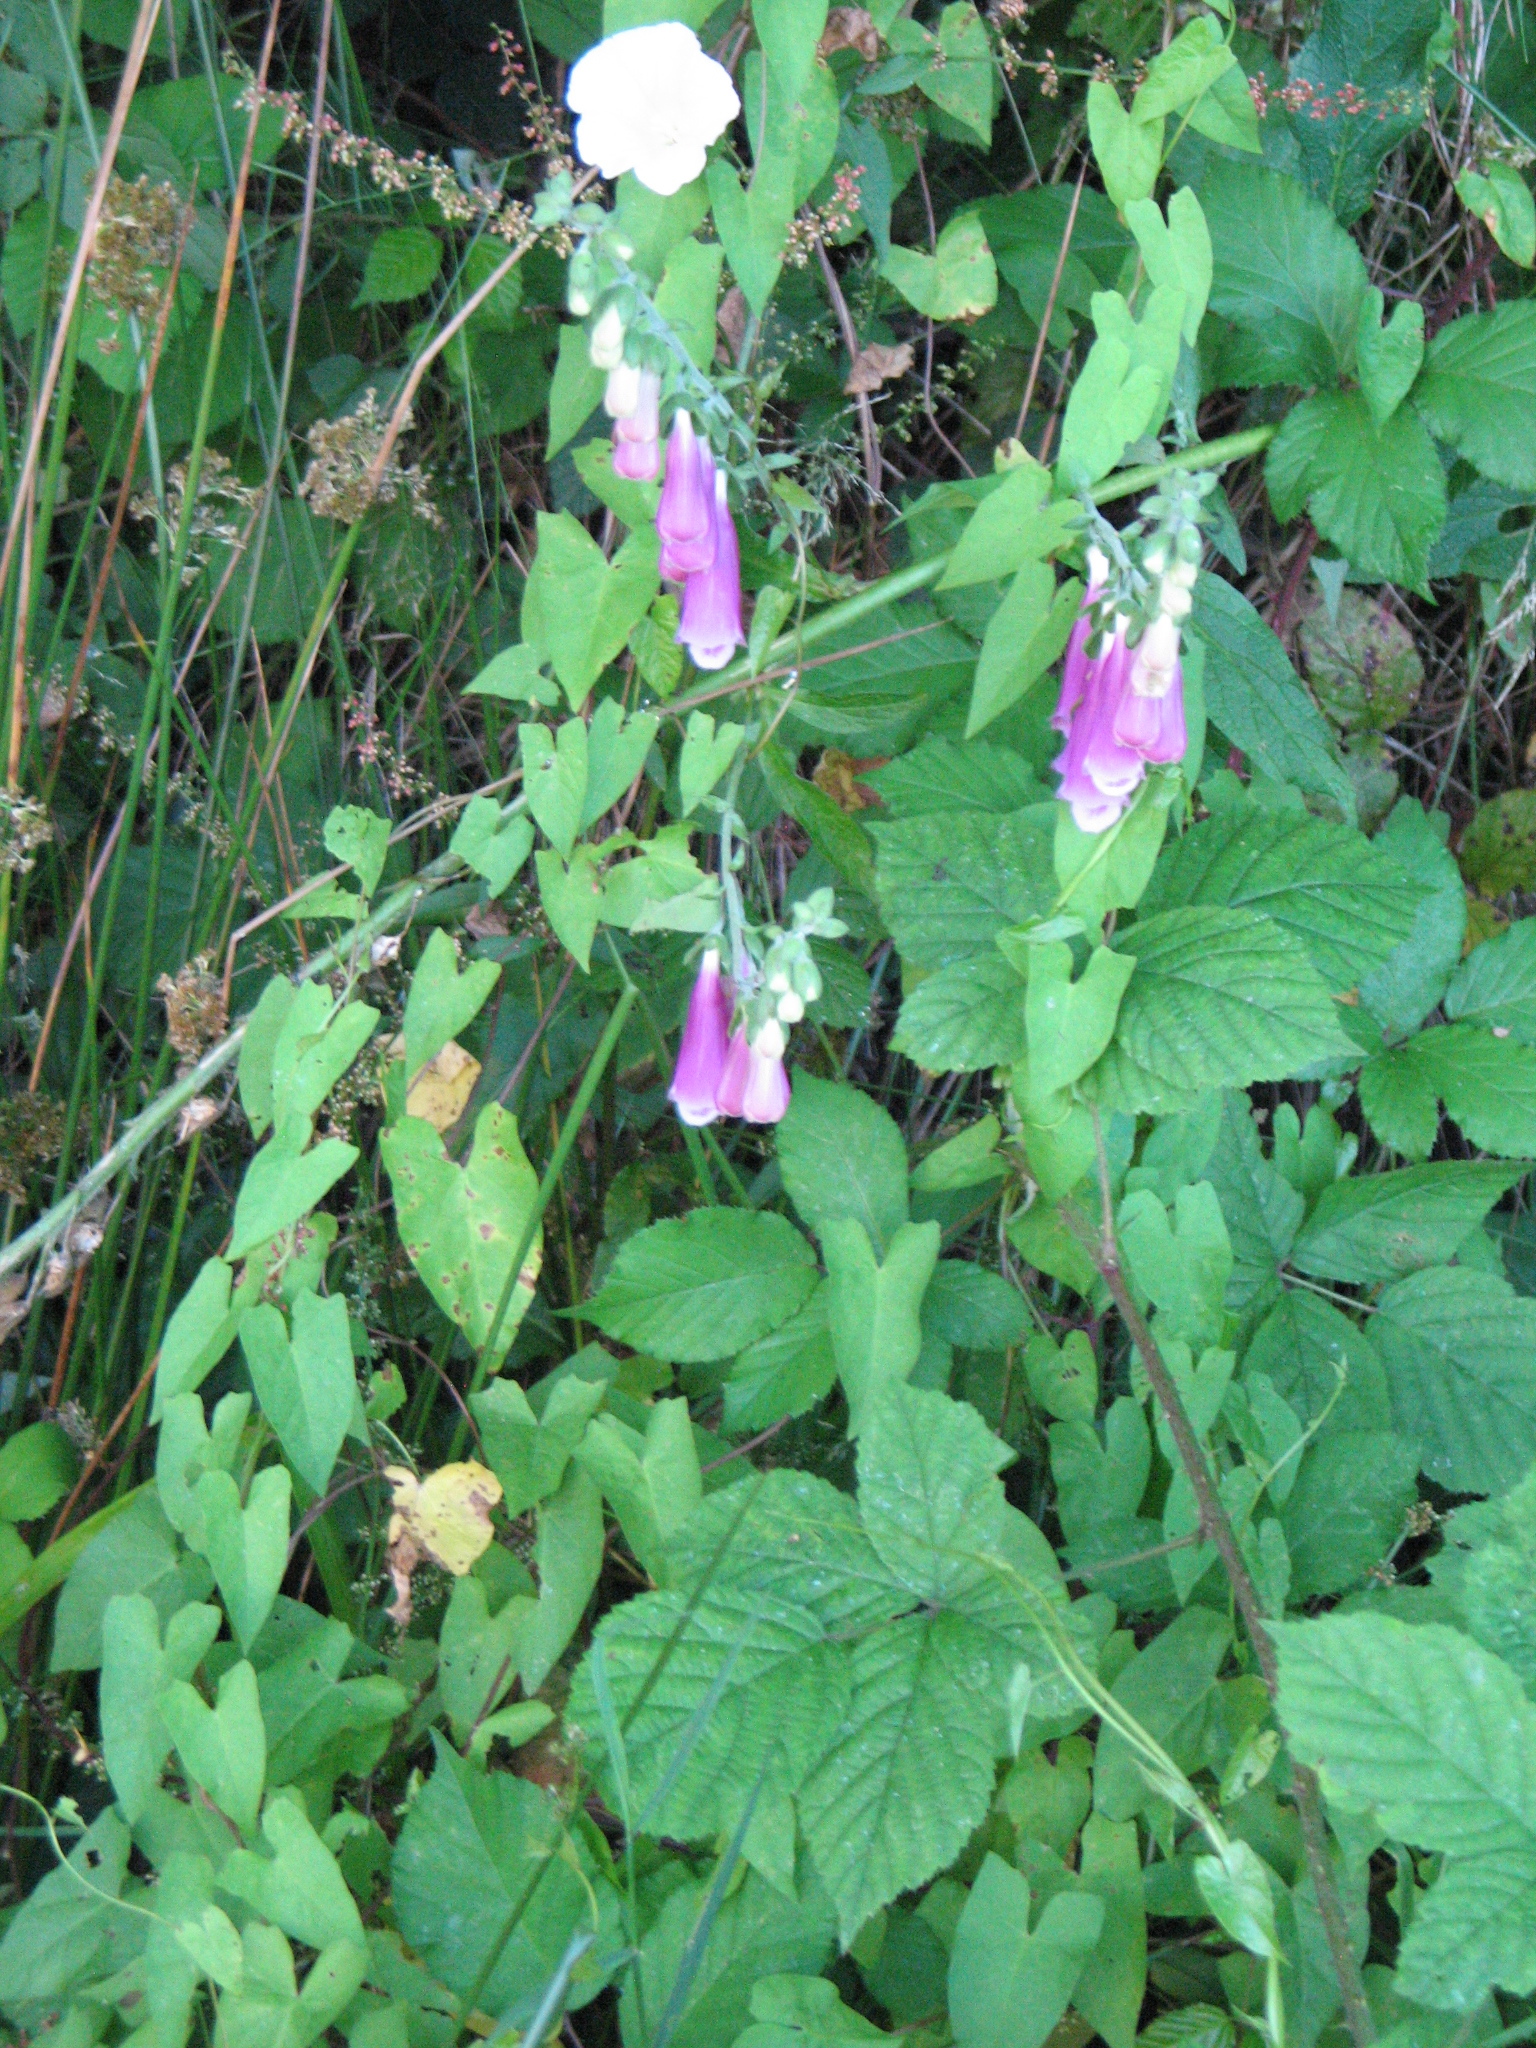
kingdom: Plantae
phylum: Tracheophyta
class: Magnoliopsida
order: Lamiales
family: Plantaginaceae
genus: Digitalis
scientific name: Digitalis purpurea
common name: Foxglove
